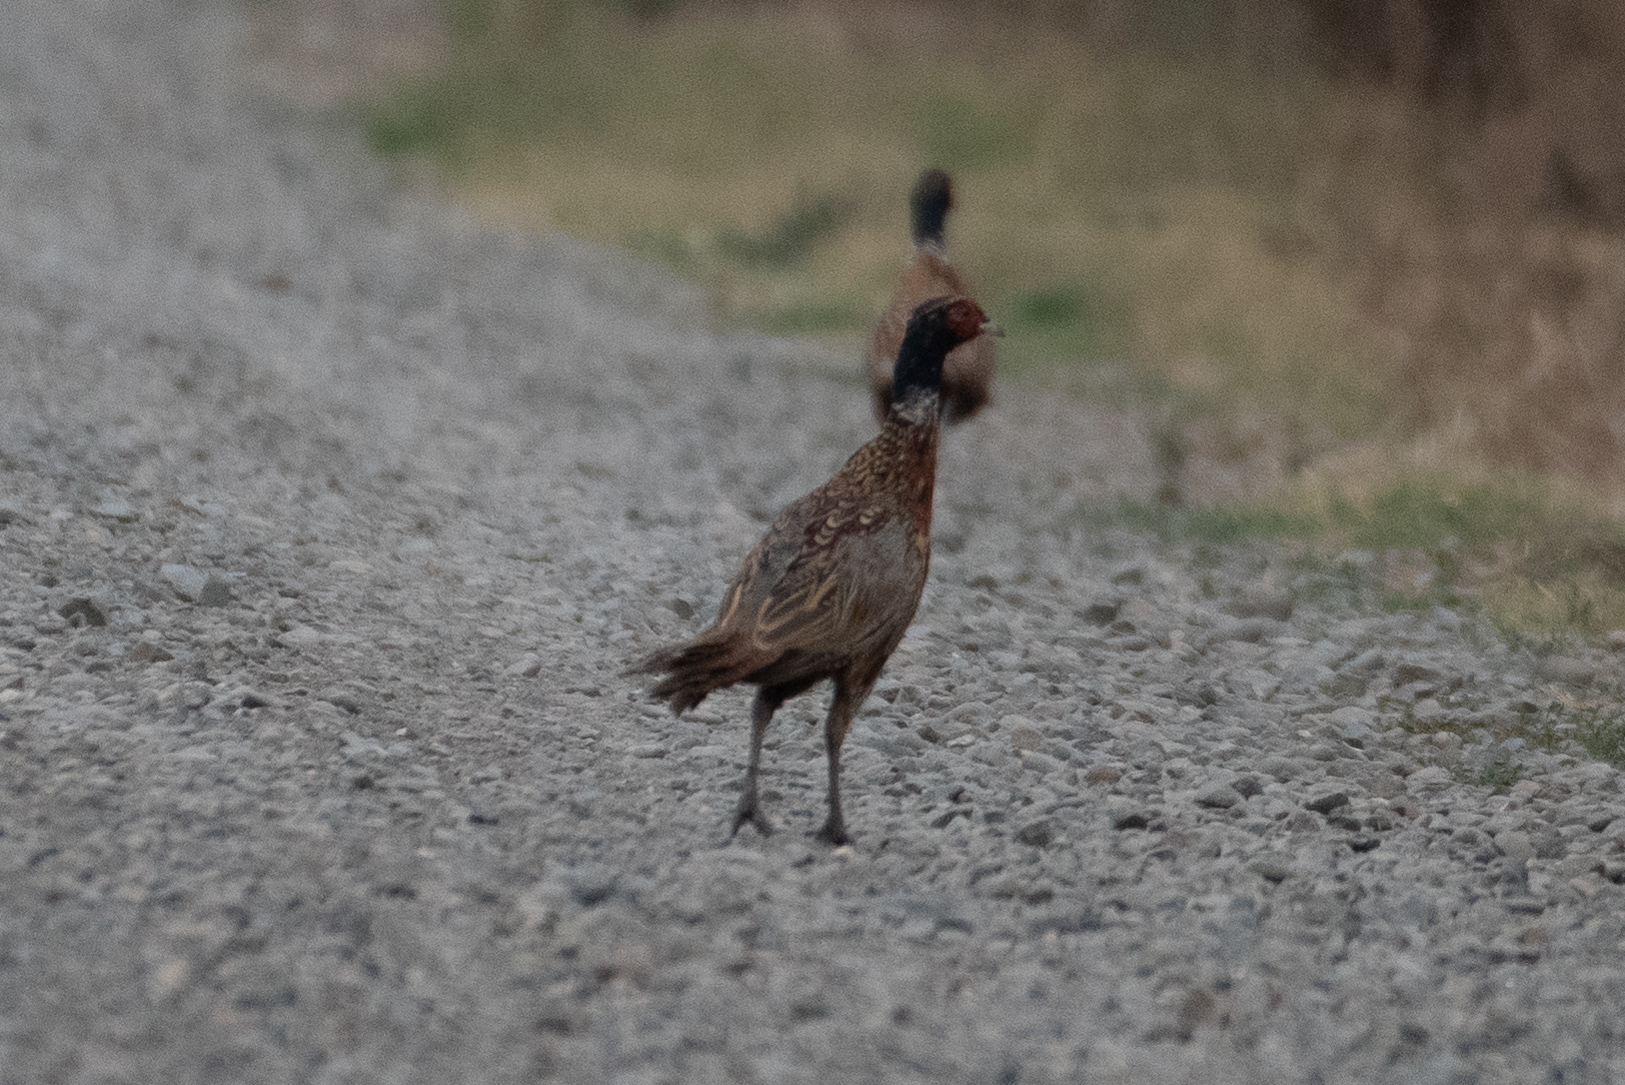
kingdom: Animalia
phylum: Chordata
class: Aves
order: Galliformes
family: Phasianidae
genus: Phasianus
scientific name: Phasianus colchicus
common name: Common pheasant
